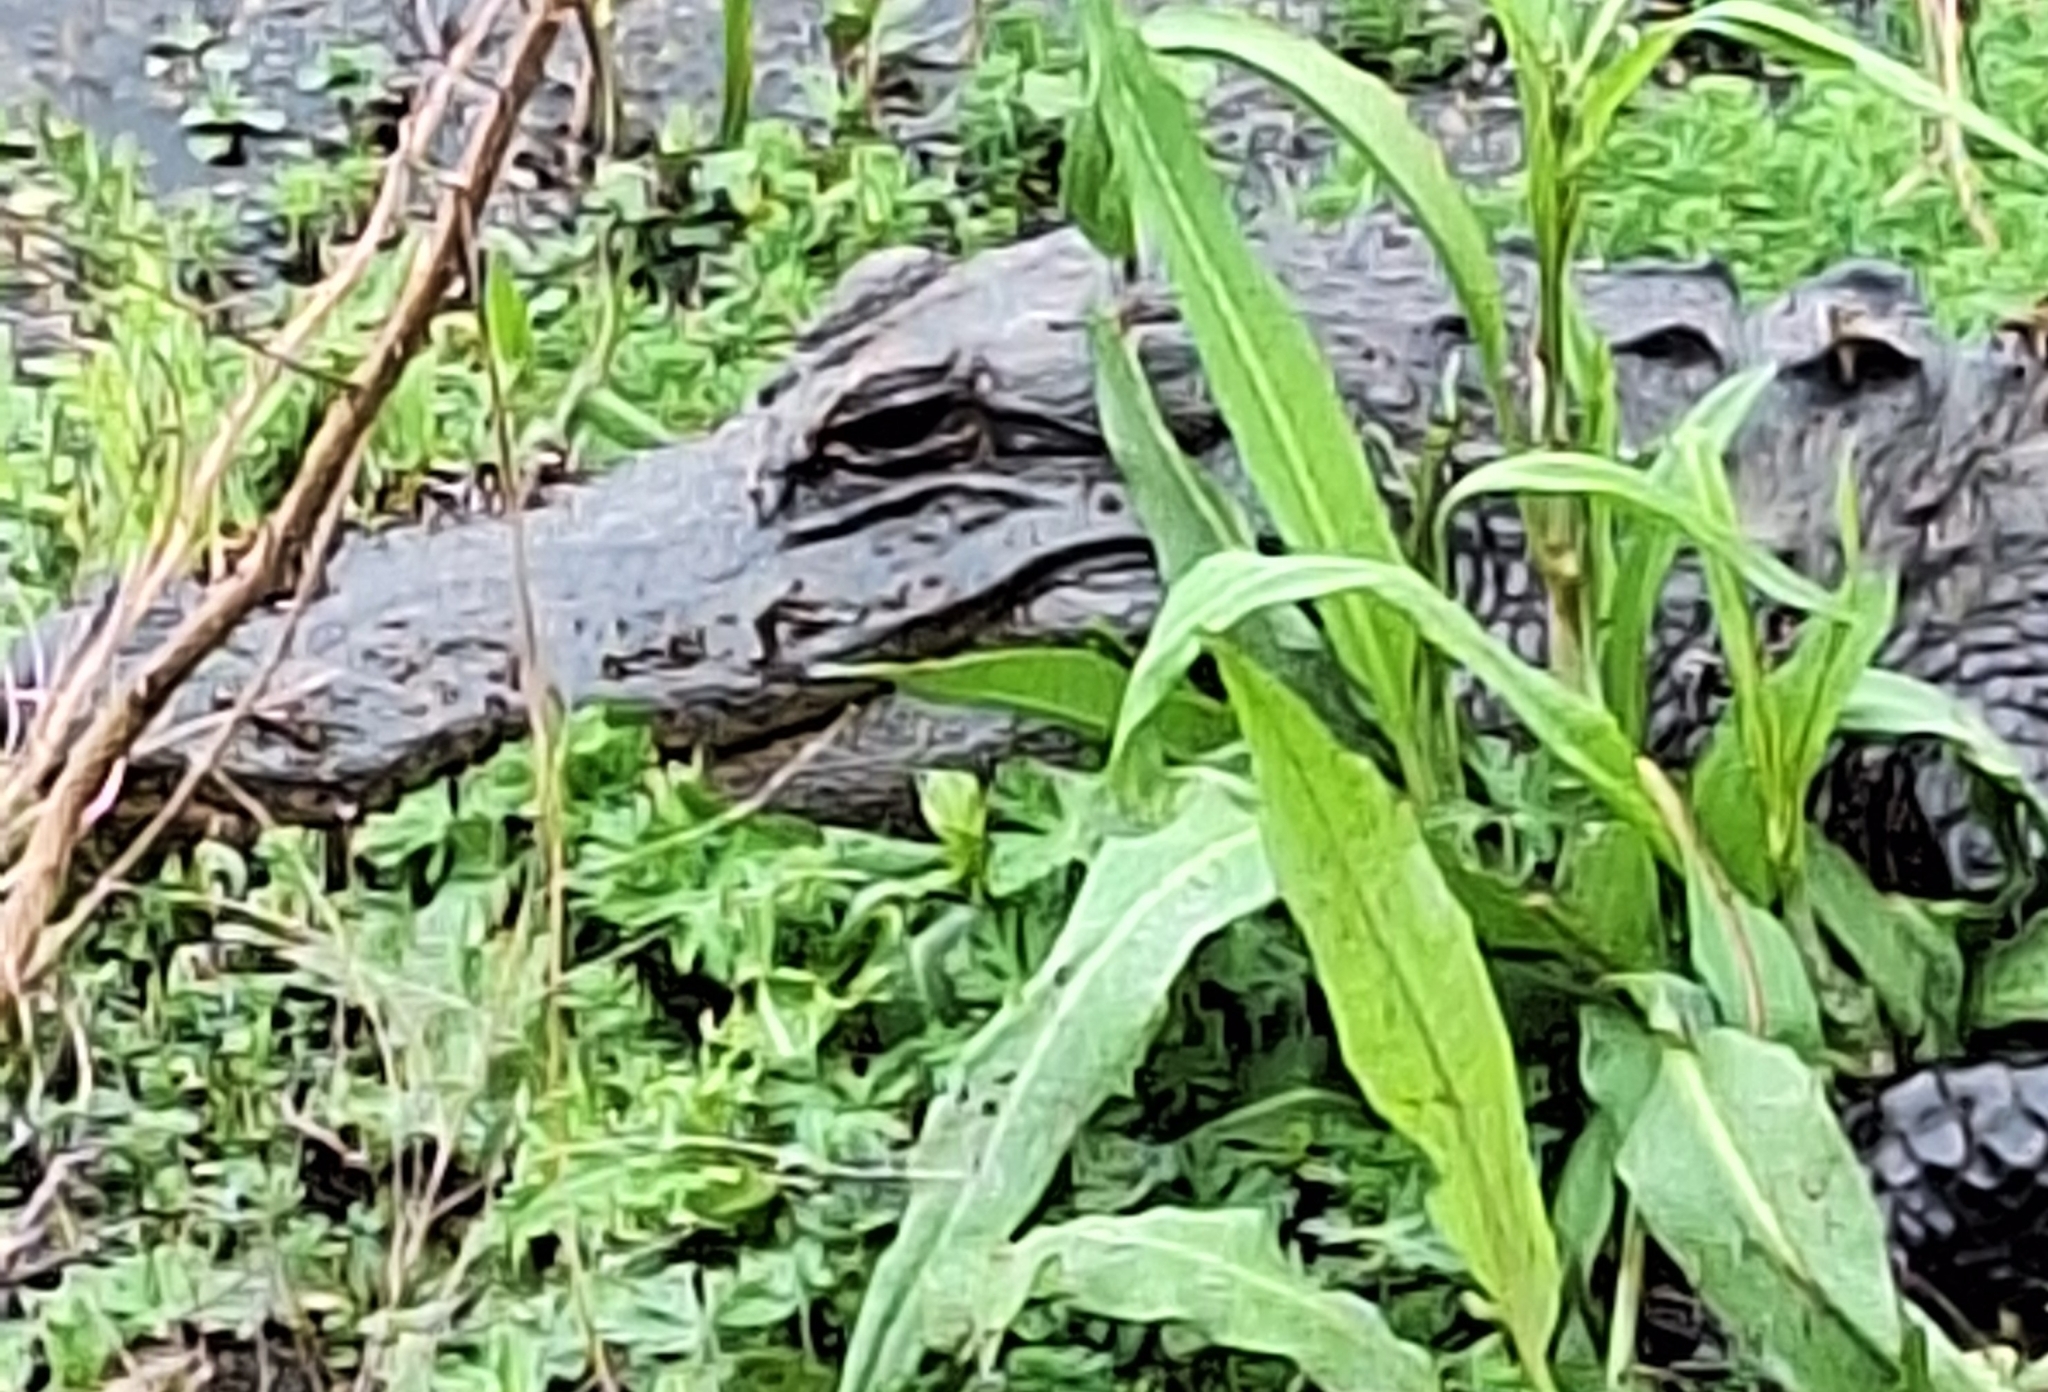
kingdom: Animalia
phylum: Chordata
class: Crocodylia
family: Alligatoridae
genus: Alligator
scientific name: Alligator mississippiensis
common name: American alligator
